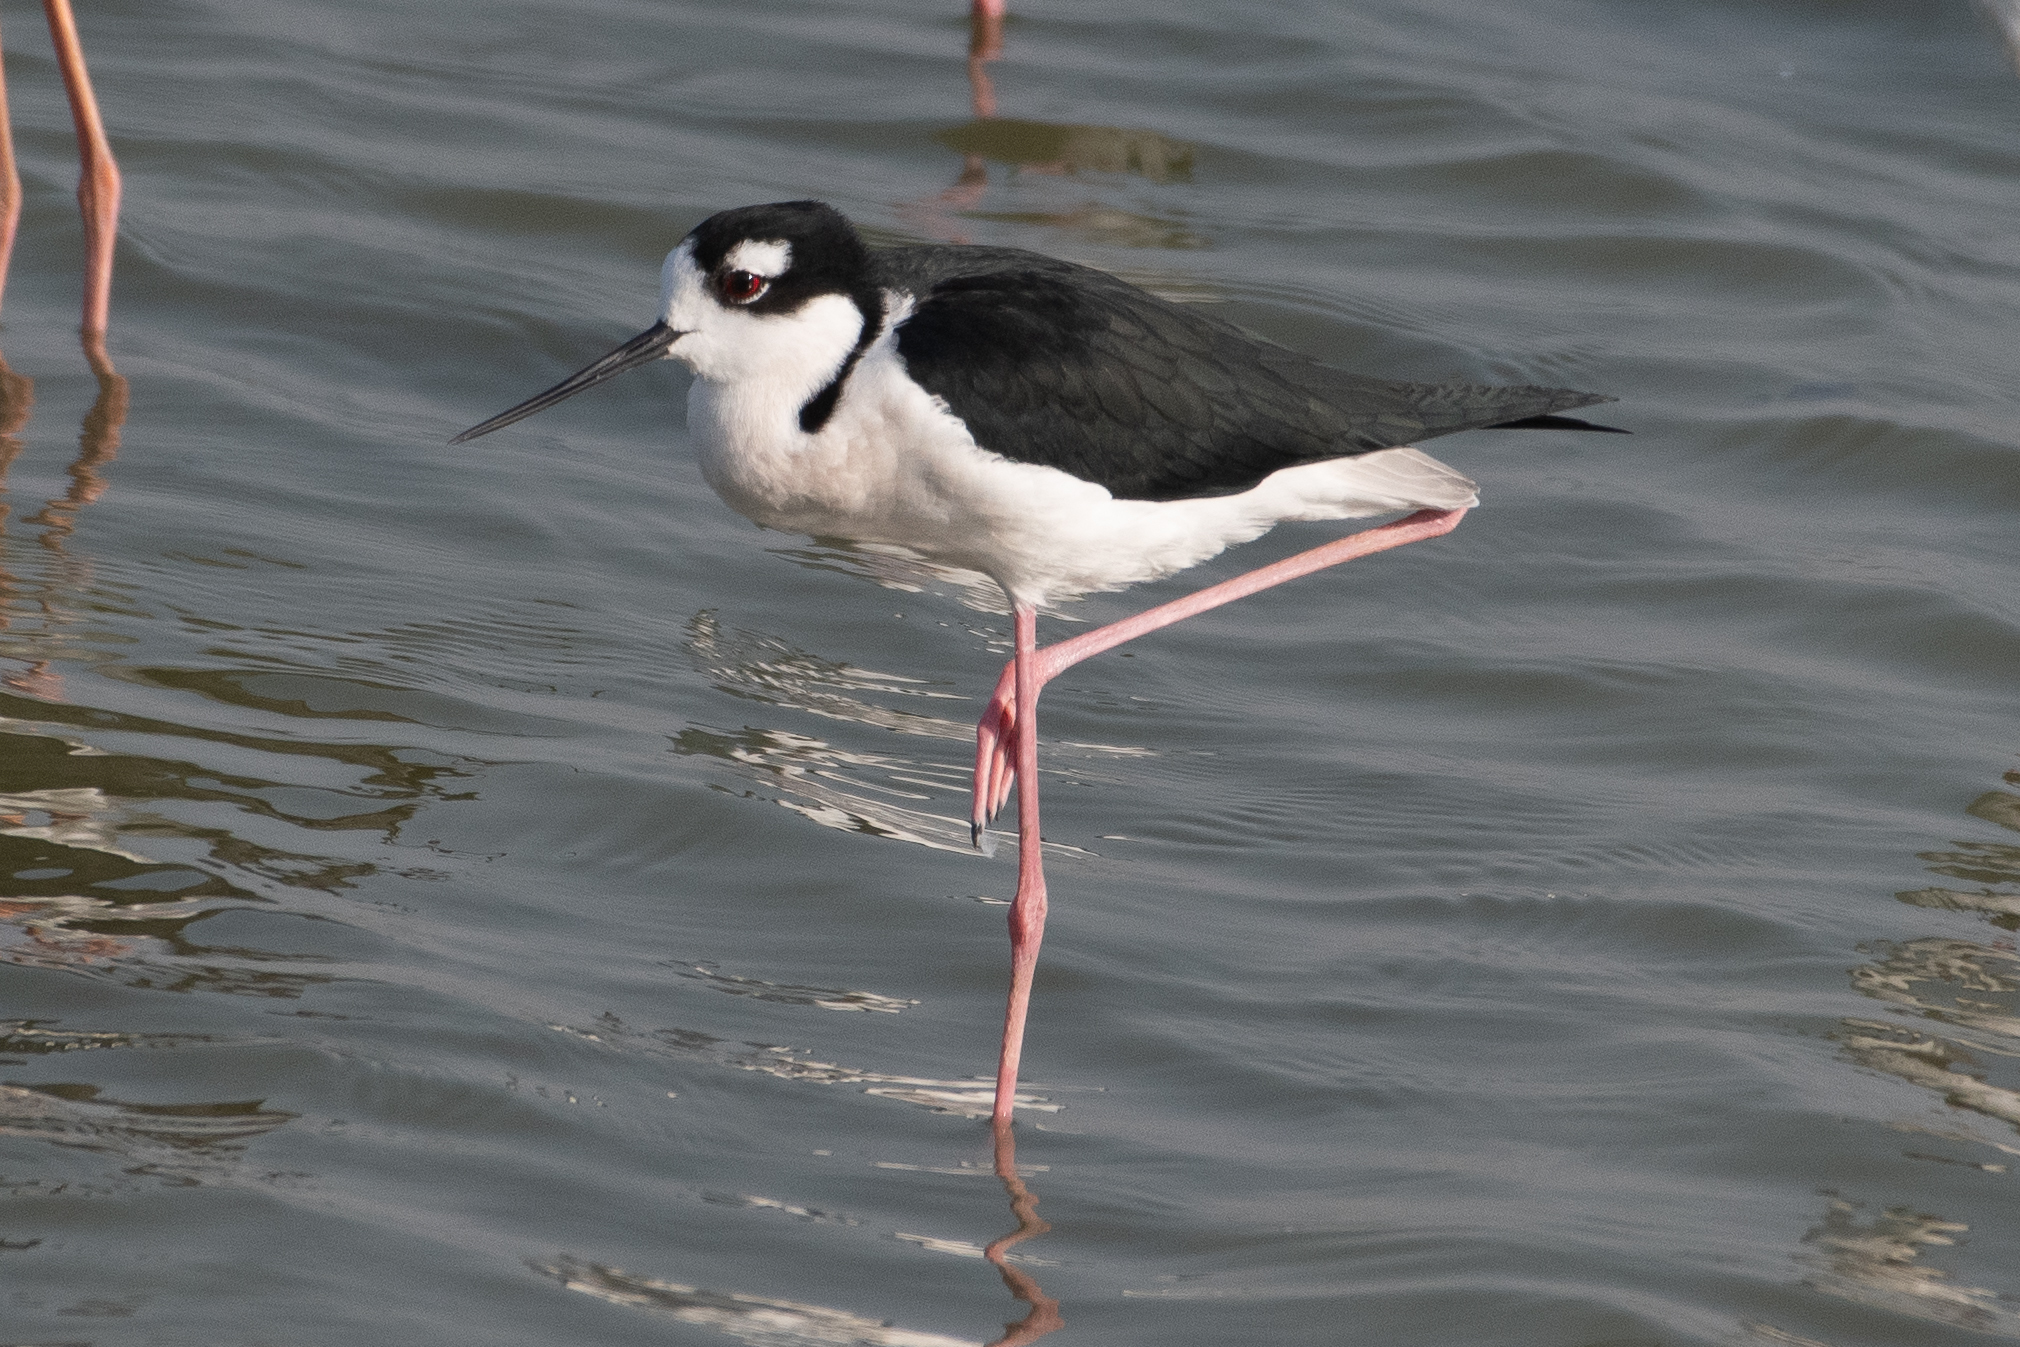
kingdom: Animalia
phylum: Chordata
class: Aves
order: Charadriiformes
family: Recurvirostridae
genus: Himantopus
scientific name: Himantopus mexicanus
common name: Black-necked stilt
